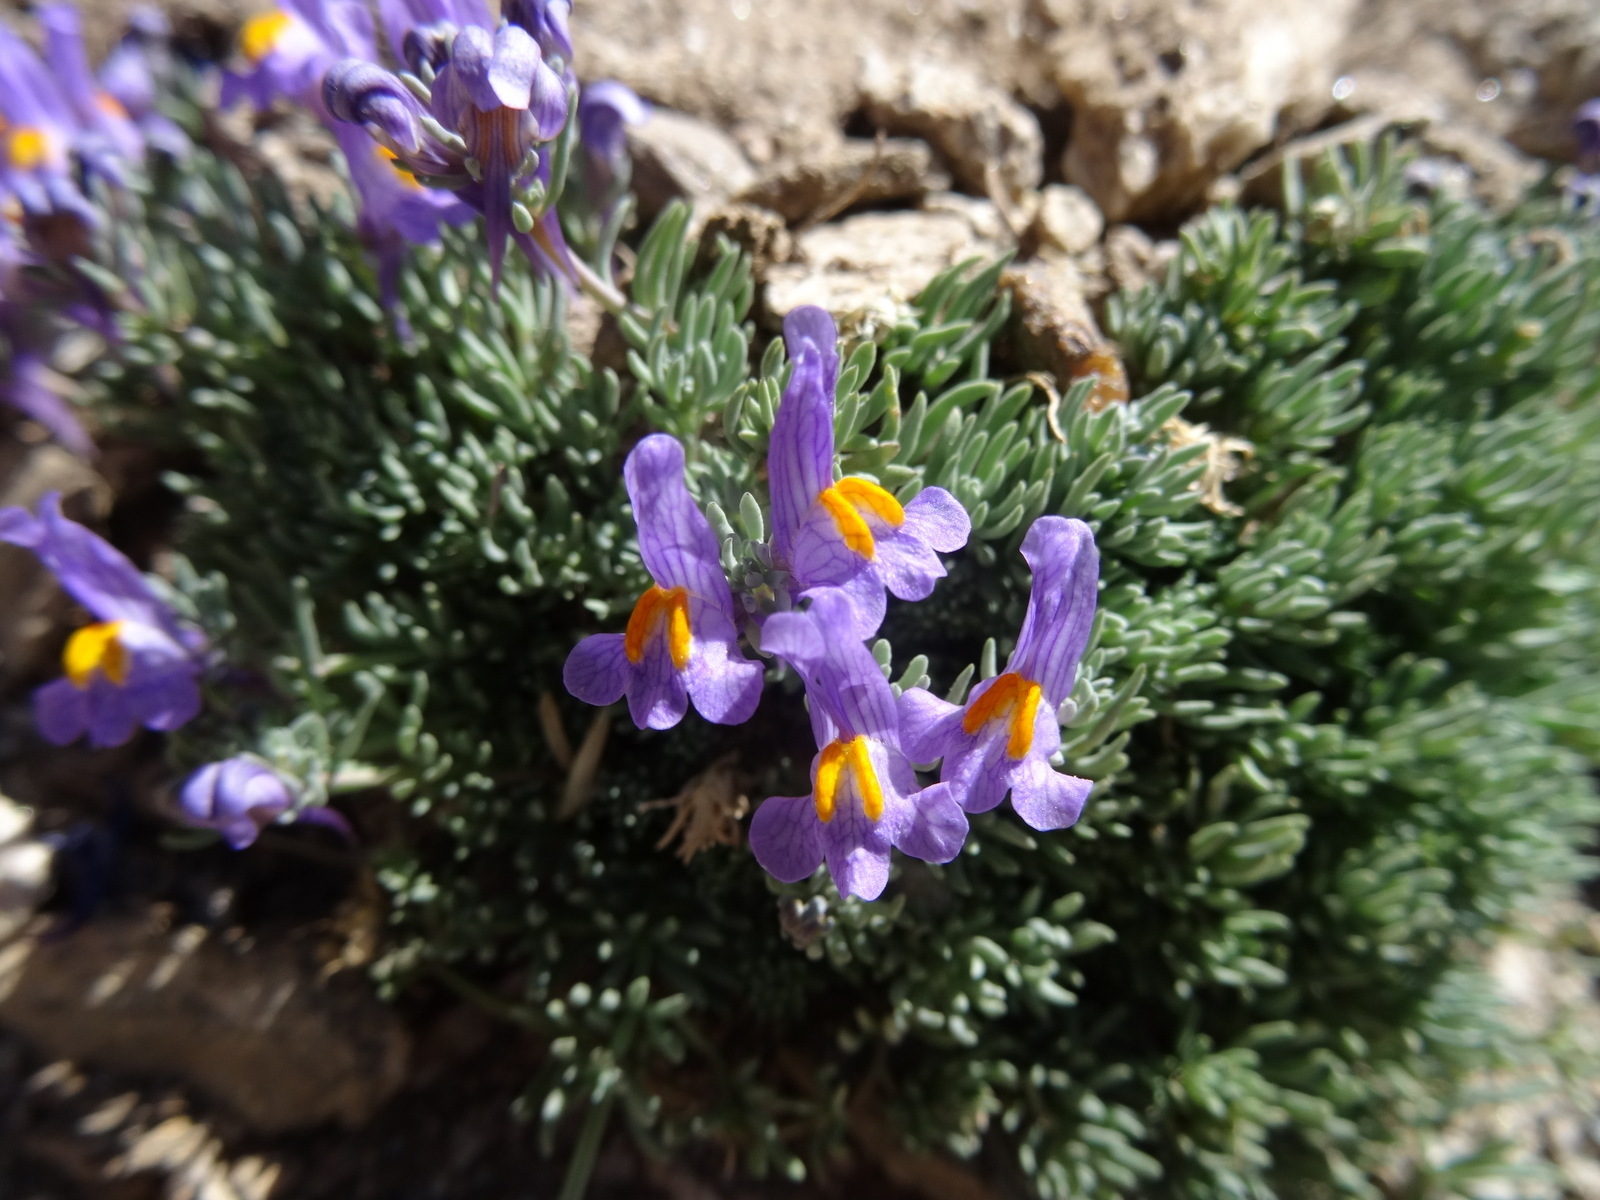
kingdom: Plantae
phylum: Tracheophyta
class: Magnoliopsida
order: Lamiales
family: Plantaginaceae
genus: Linaria
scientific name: Linaria alpina
